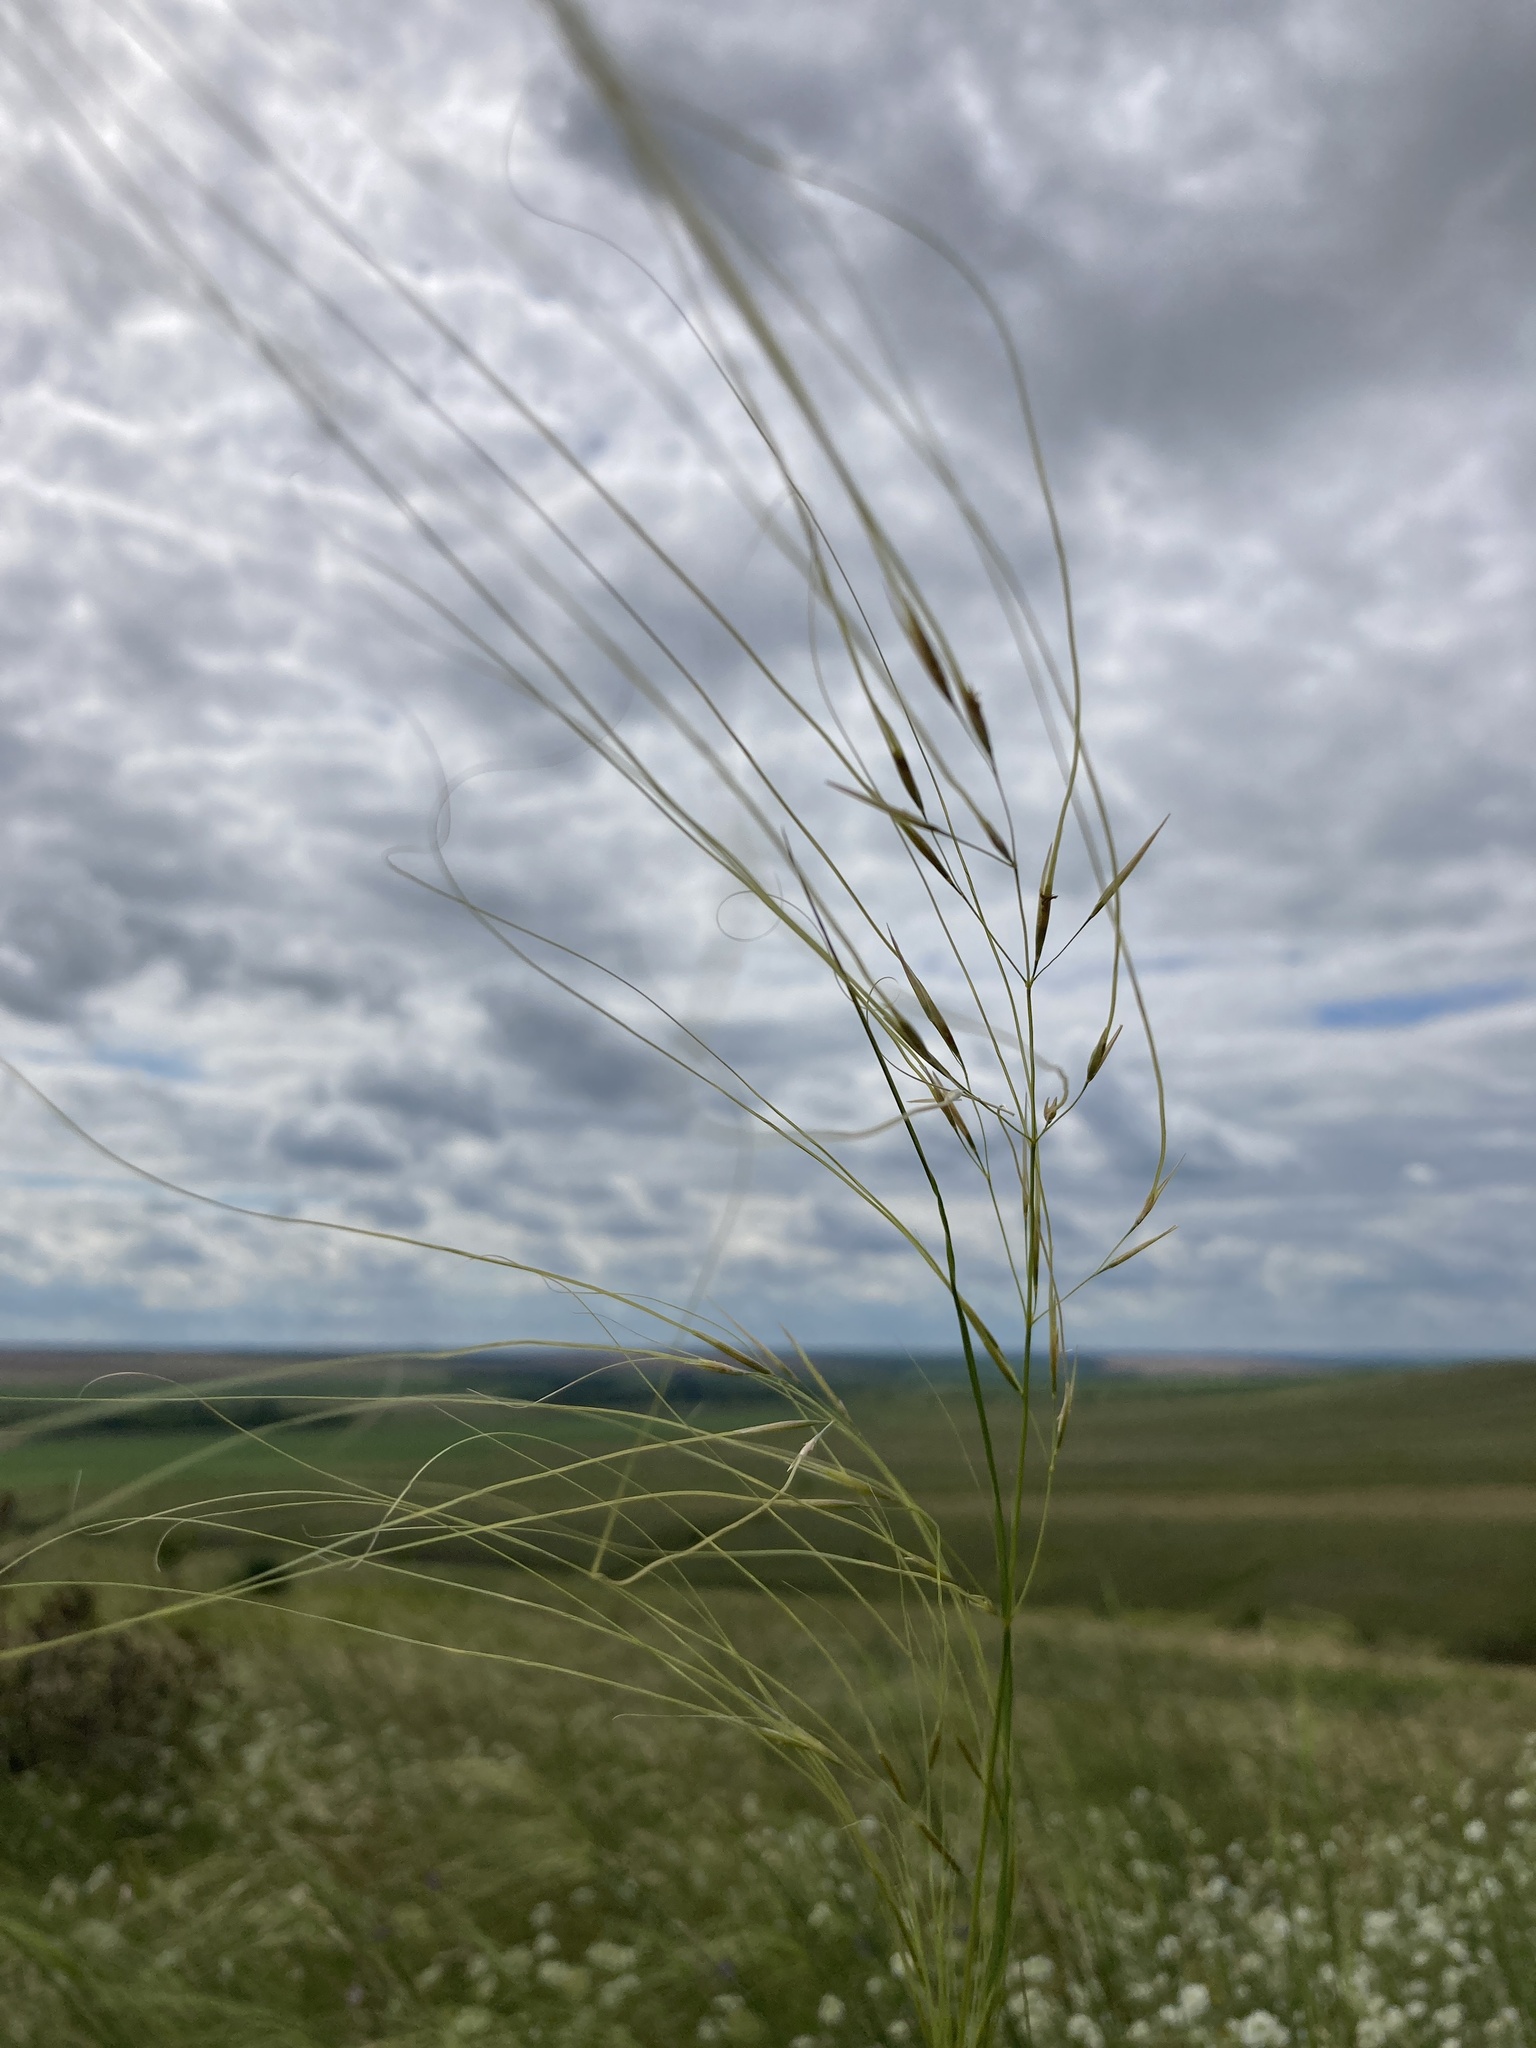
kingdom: Plantae
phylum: Tracheophyta
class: Liliopsida
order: Poales
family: Poaceae
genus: Stipa
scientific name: Stipa capillata
